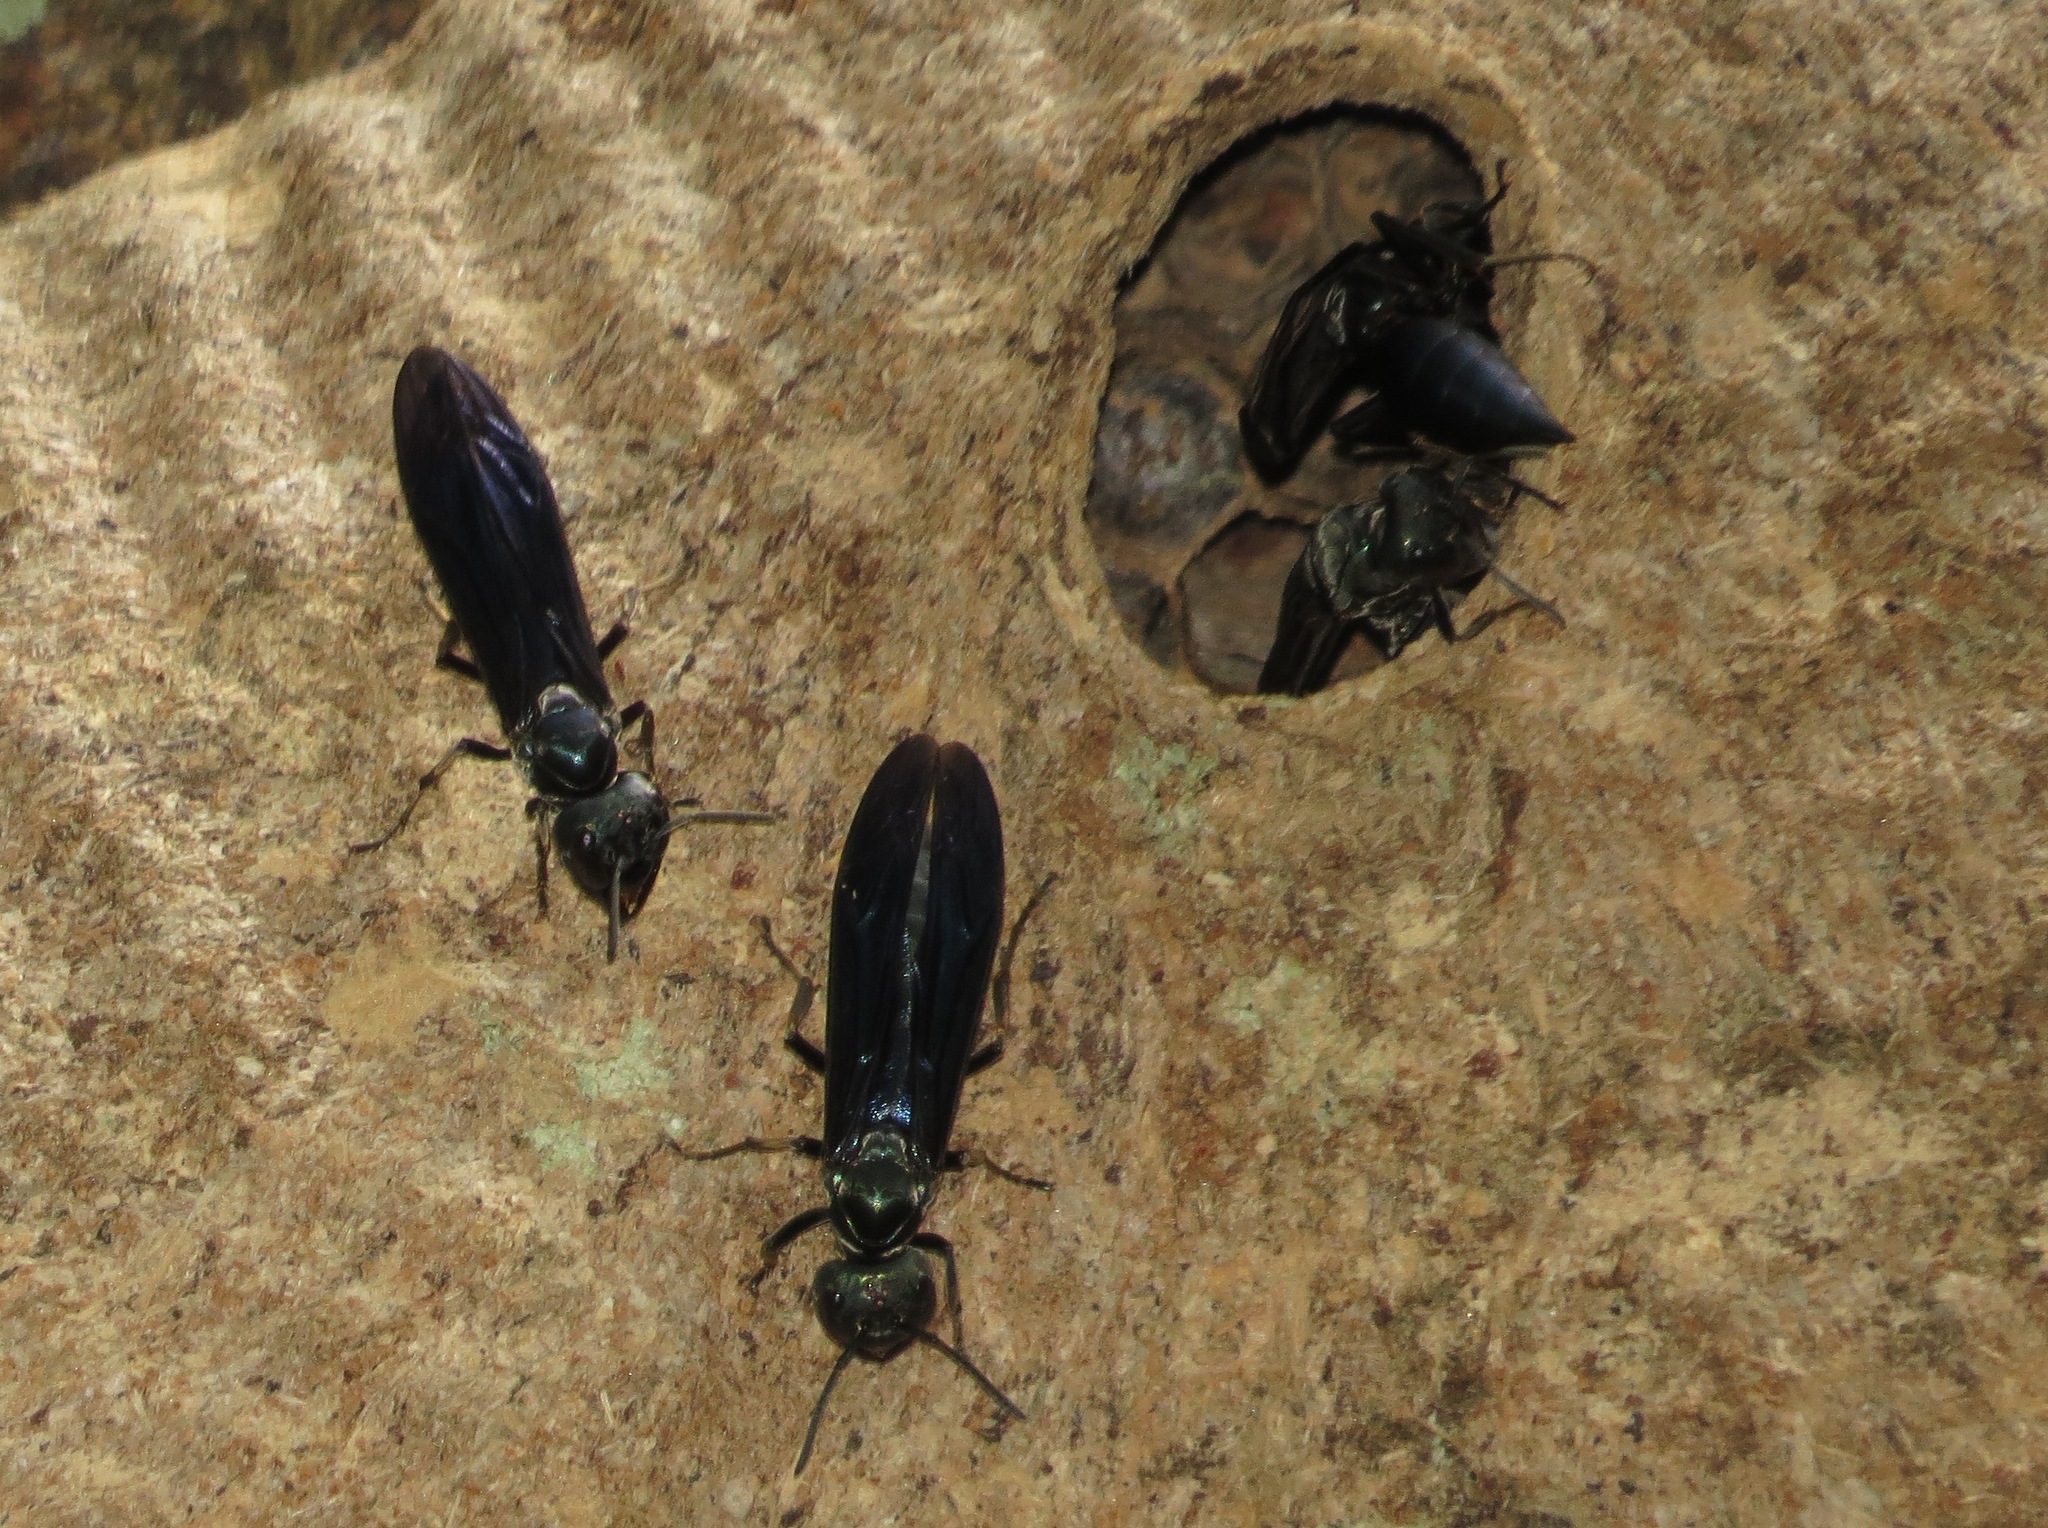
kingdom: Animalia
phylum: Arthropoda
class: Insecta
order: Hymenoptera
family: Vespidae
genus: Synoeca
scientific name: Synoeca surinama
